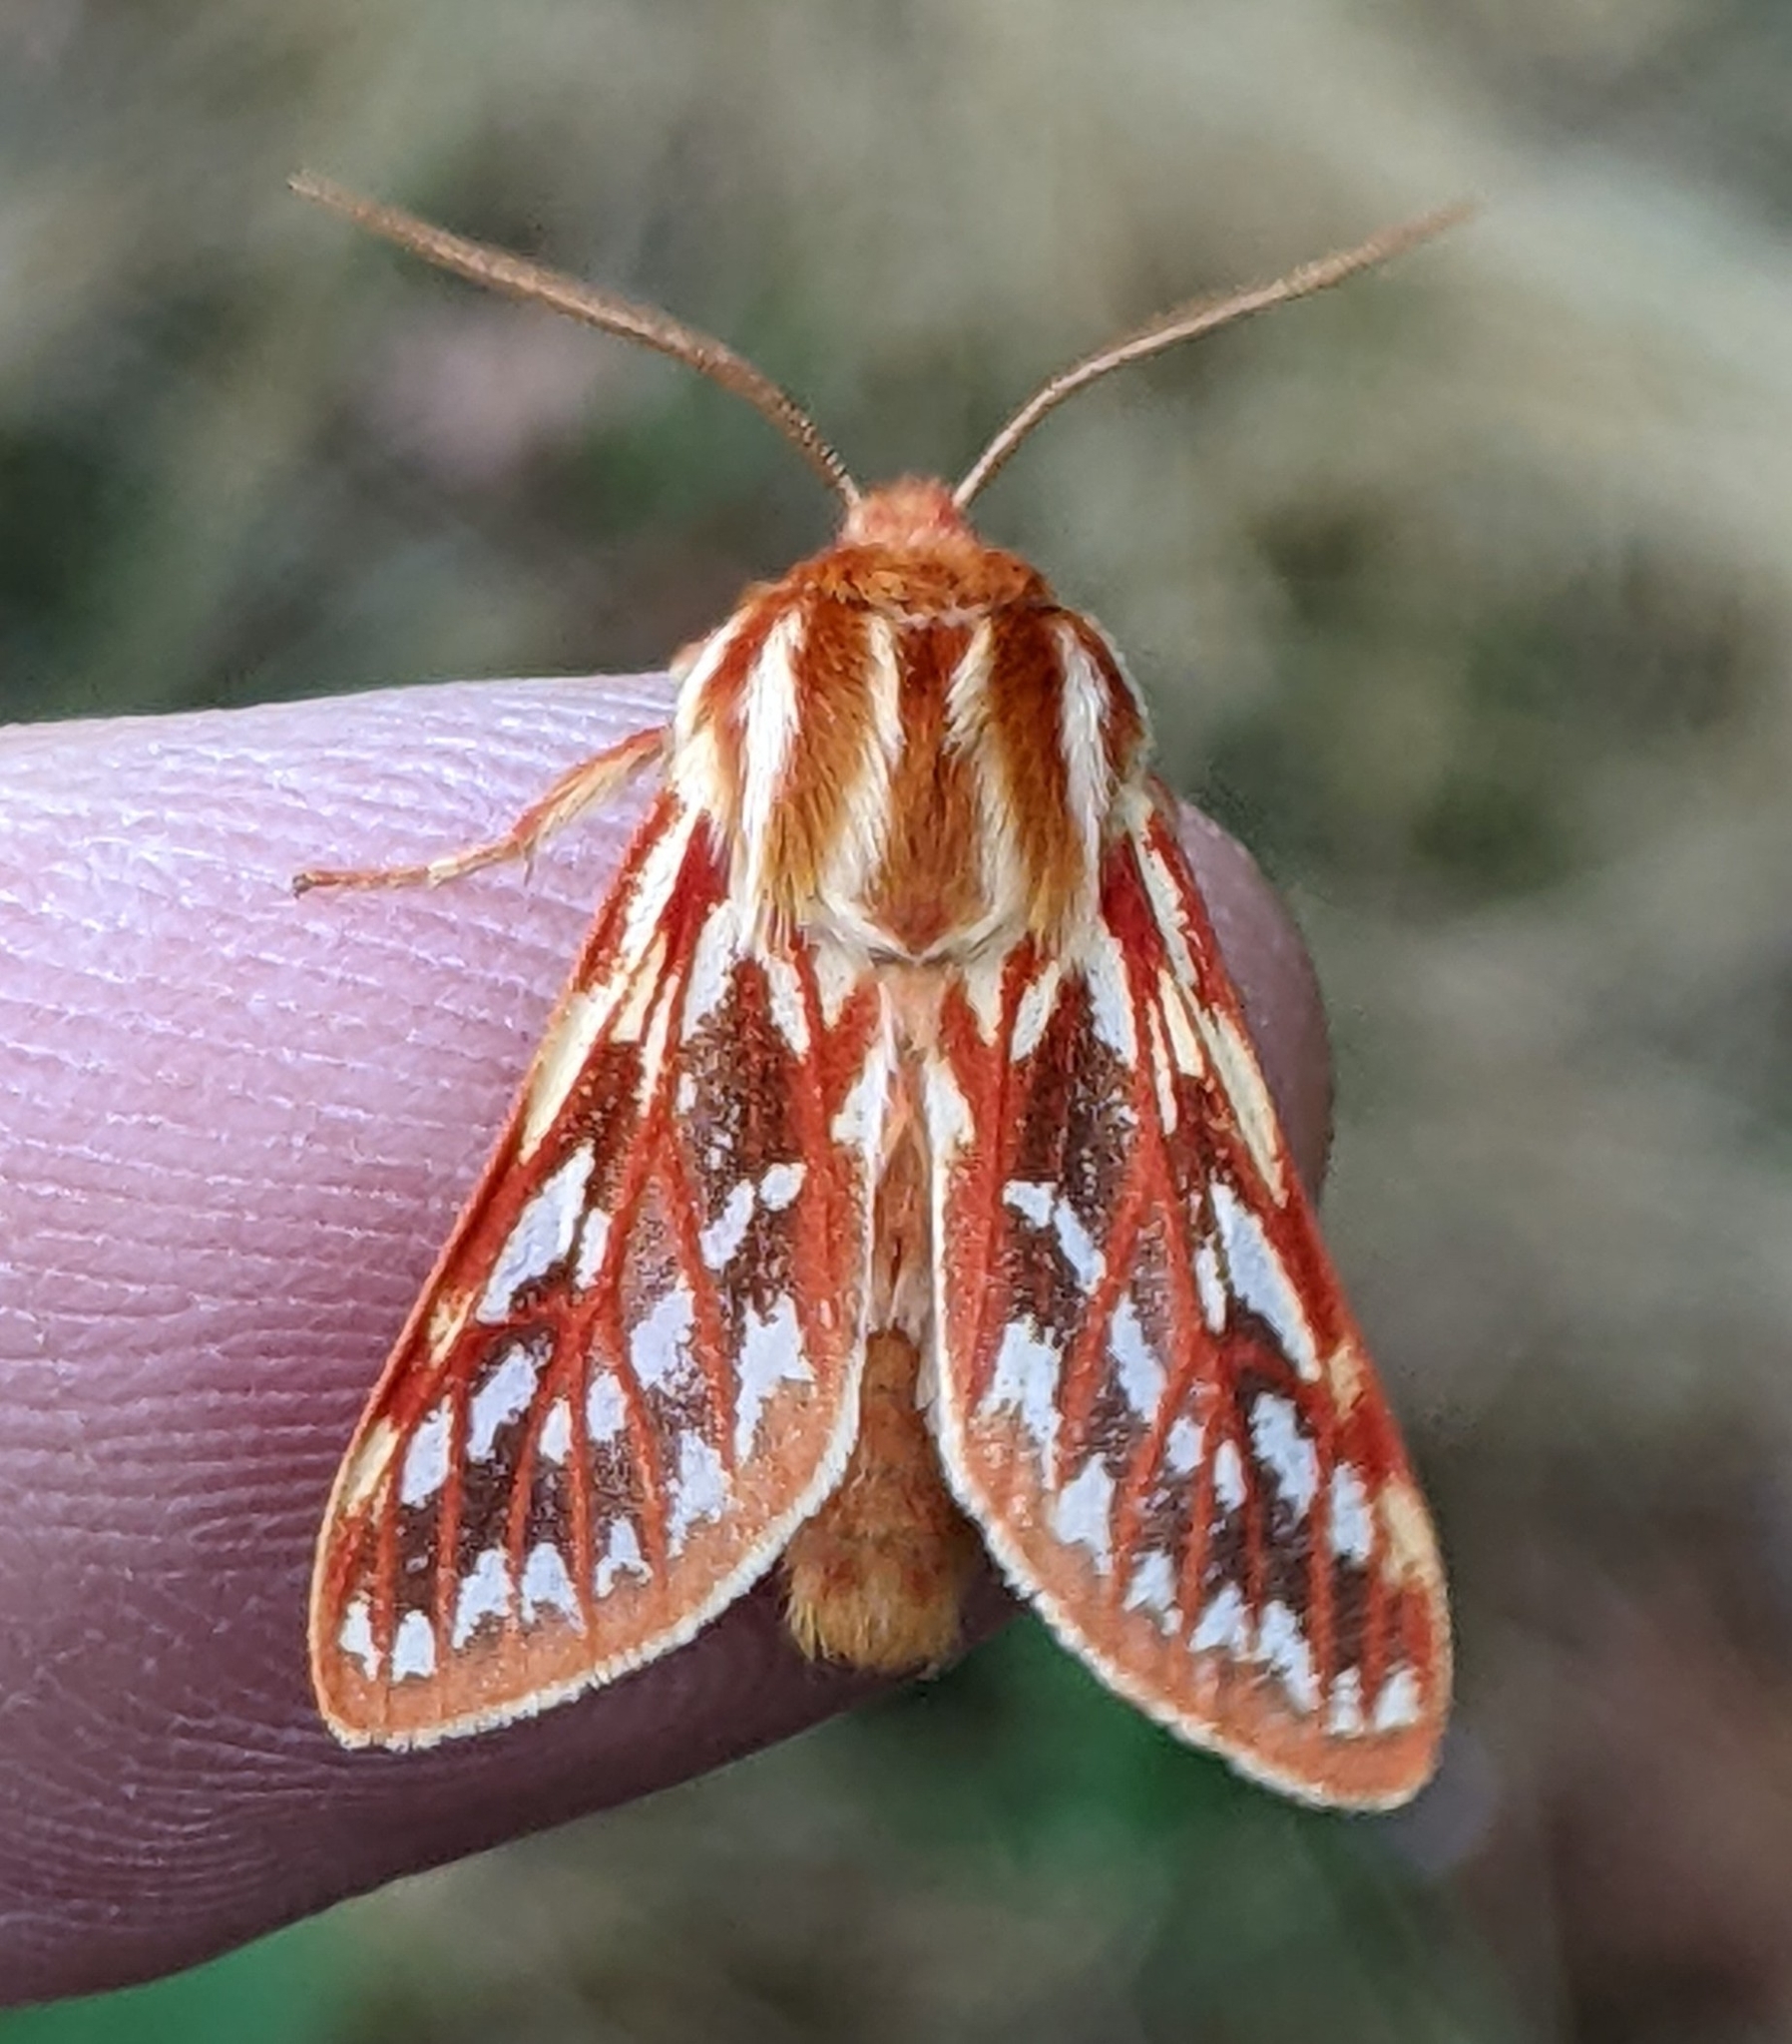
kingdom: Animalia
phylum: Arthropoda
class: Insecta
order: Lepidoptera
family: Erebidae
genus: Lophocampa
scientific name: Lophocampa roseata
